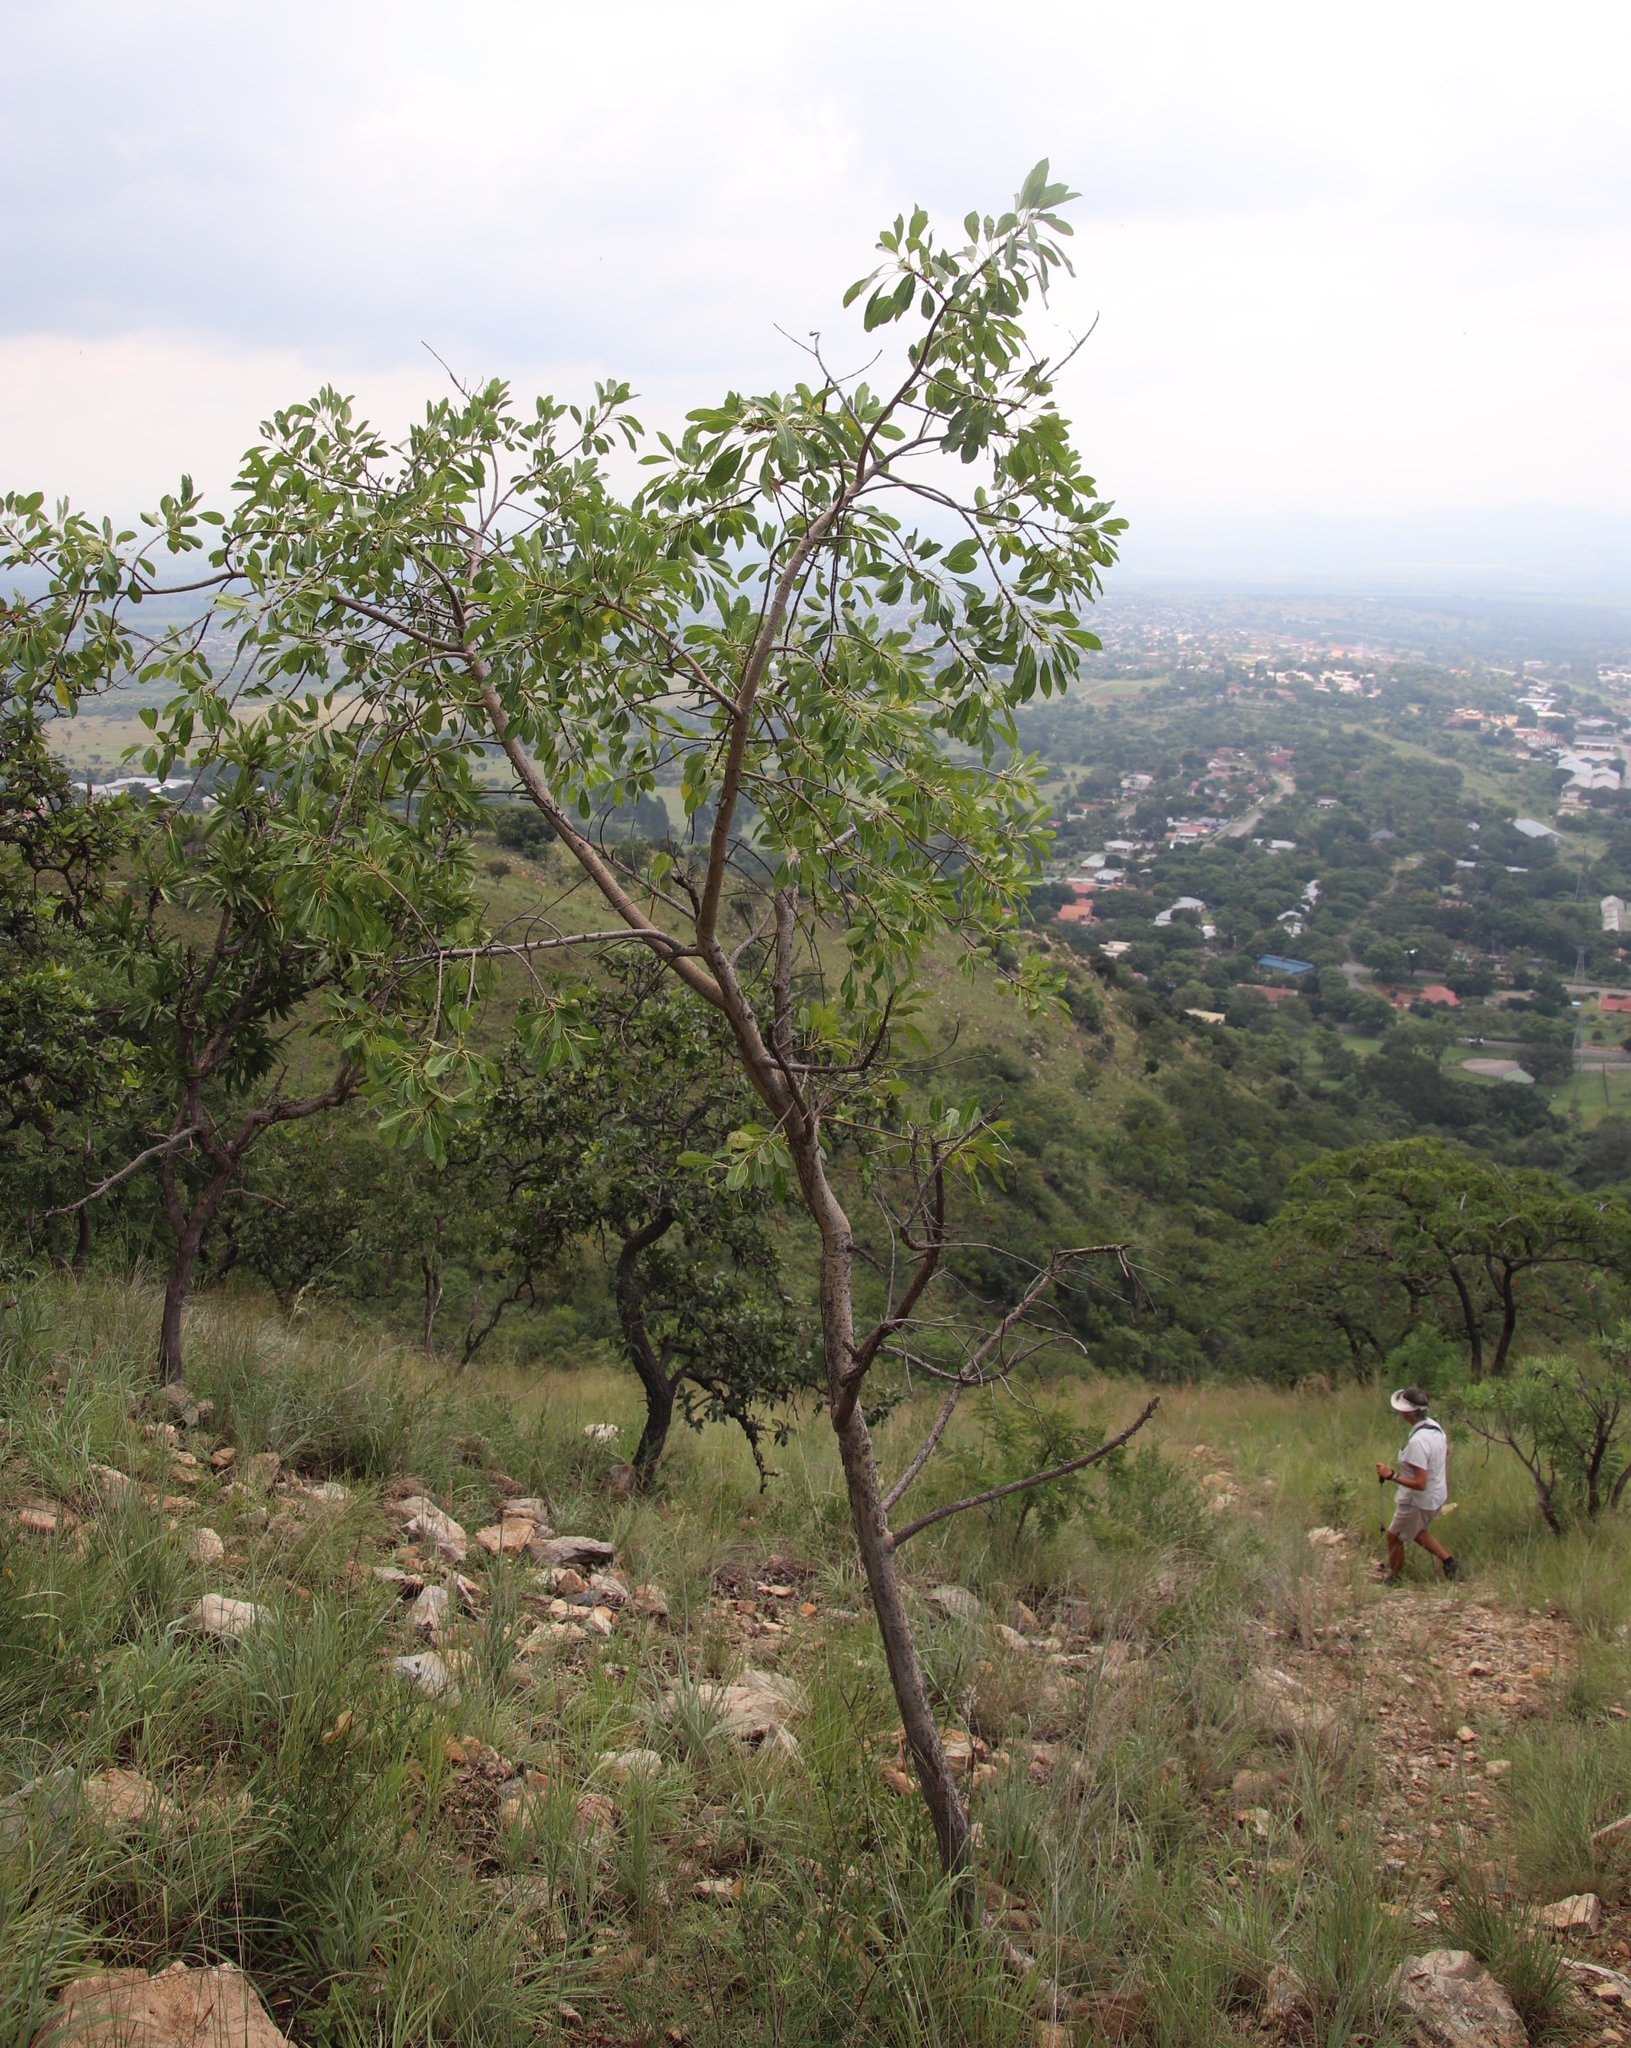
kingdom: Plantae
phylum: Tracheophyta
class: Magnoliopsida
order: Rosales
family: Moraceae
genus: Ficus
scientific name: Ficus petersii
